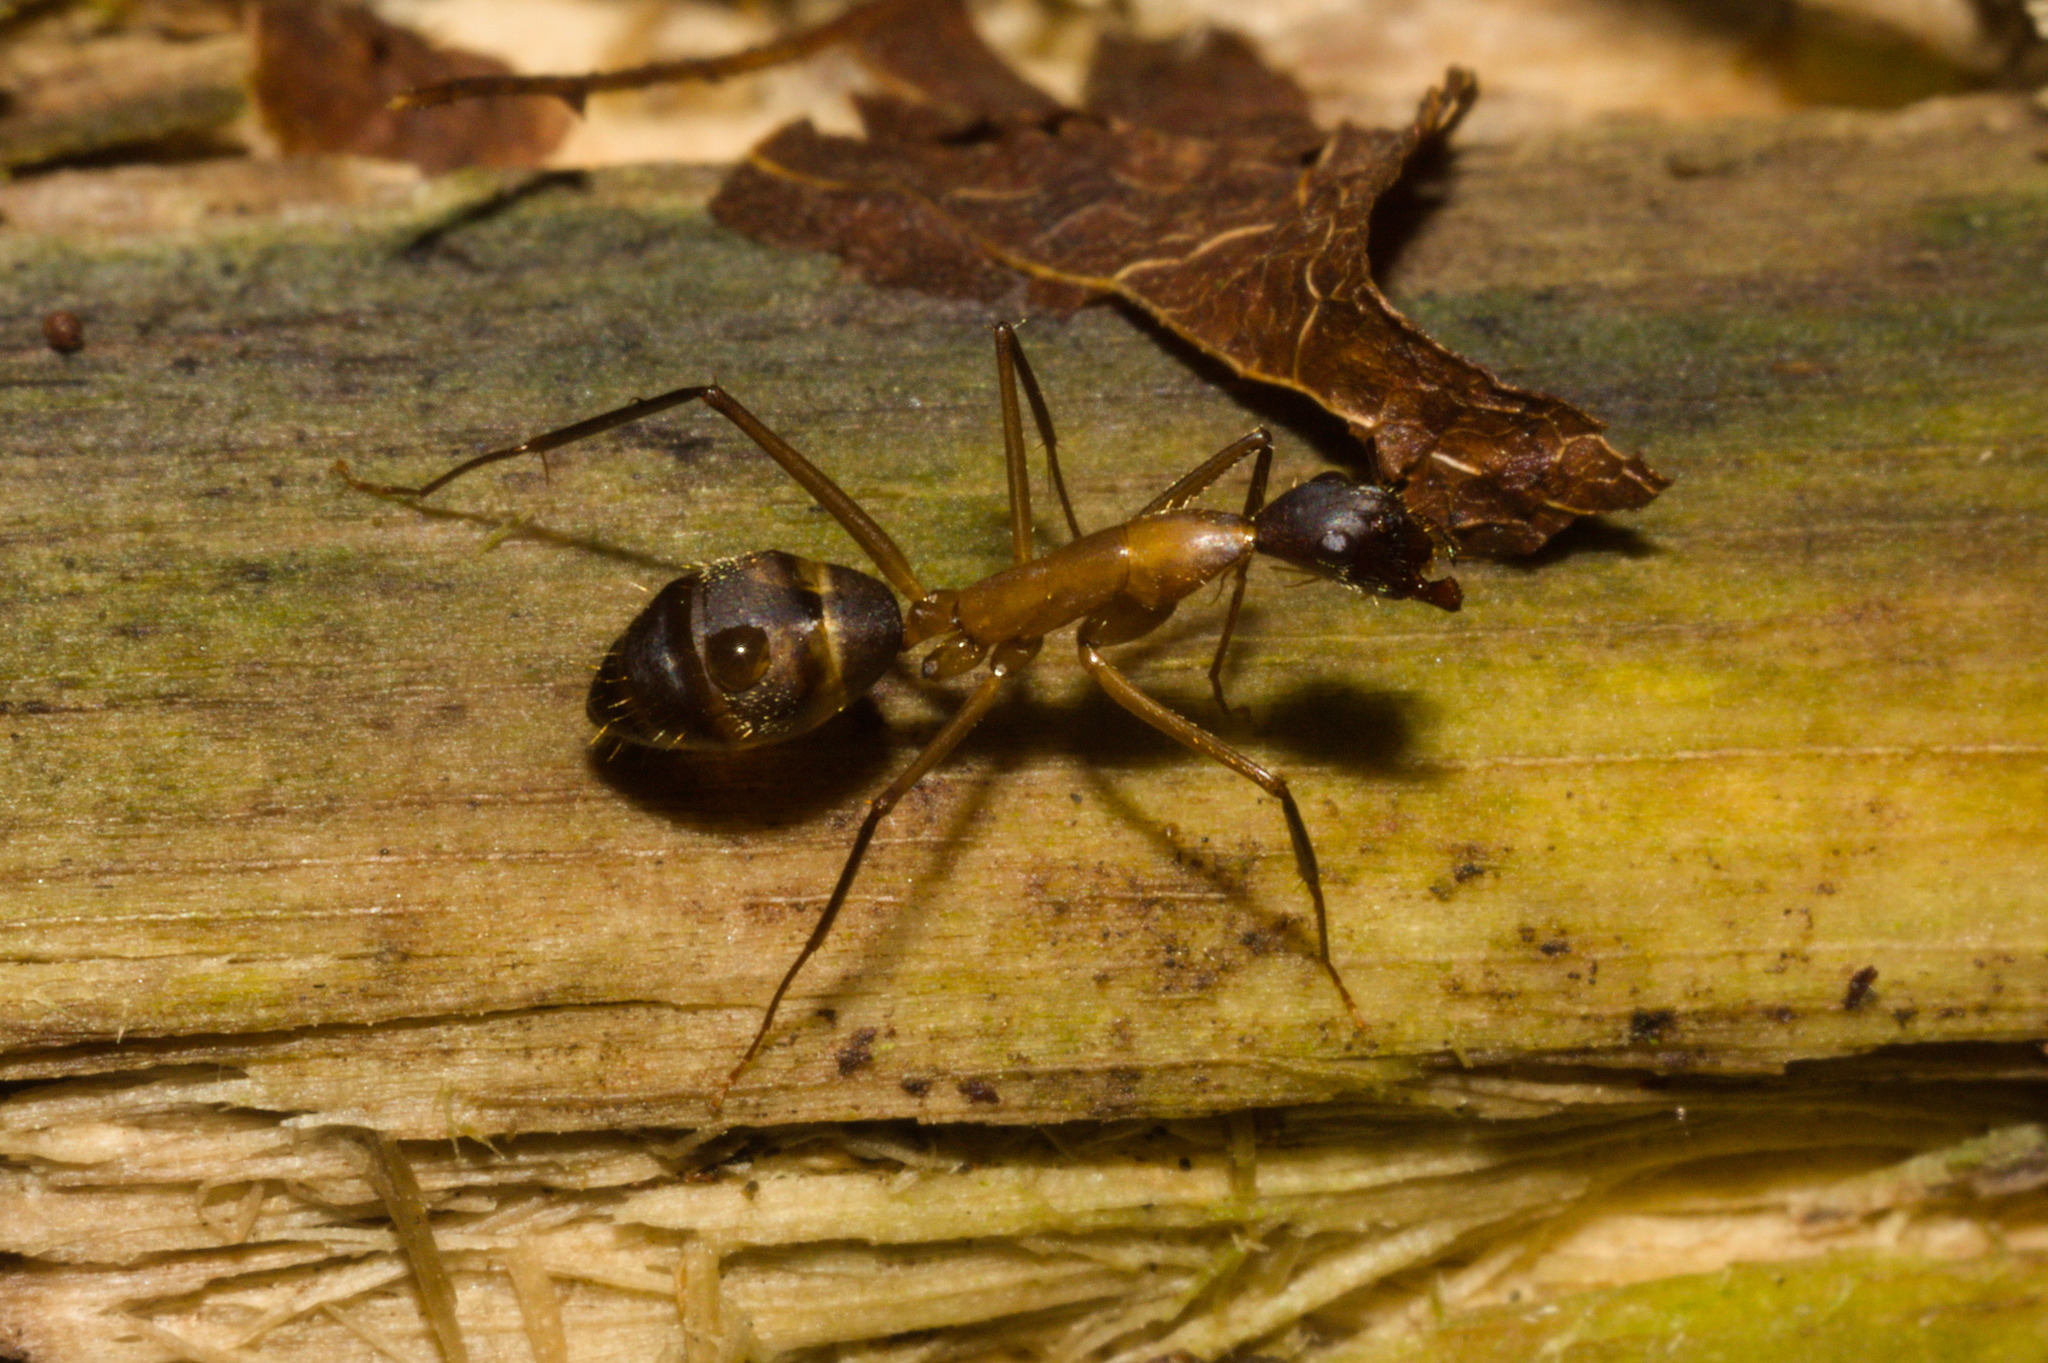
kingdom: Animalia
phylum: Arthropoda
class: Insecta
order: Hymenoptera
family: Formicidae
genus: Camponotus
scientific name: Camponotus lespesii
